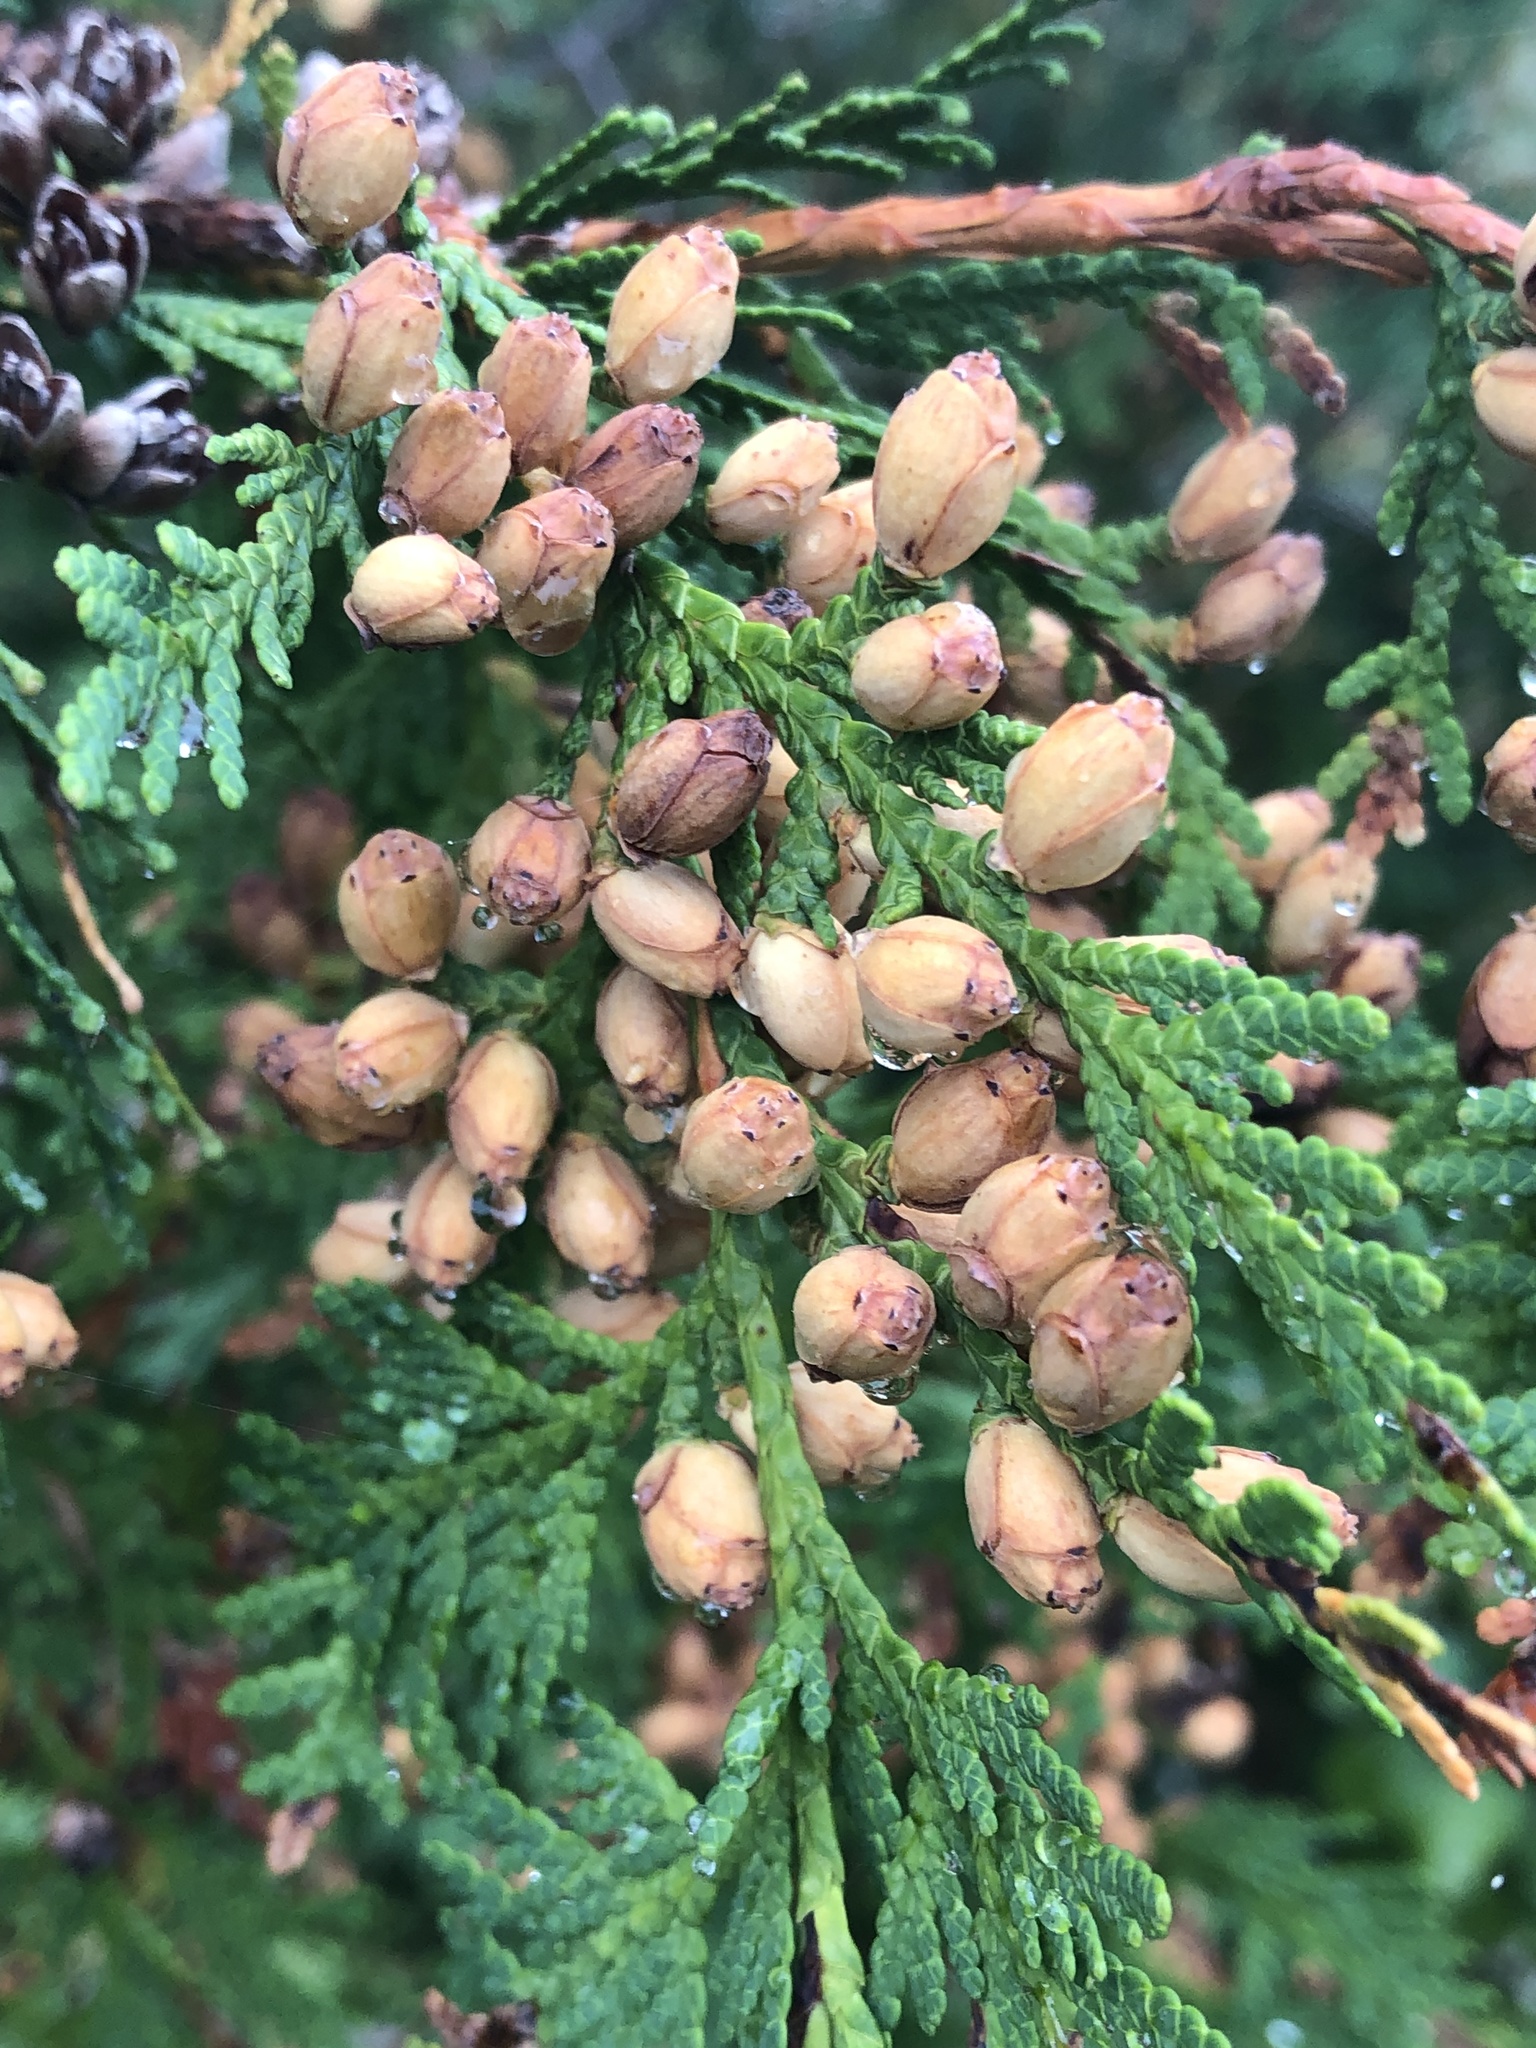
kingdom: Plantae
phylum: Tracheophyta
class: Pinopsida
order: Pinales
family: Cupressaceae
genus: Thuja
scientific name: Thuja occidentalis
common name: Northern white-cedar
